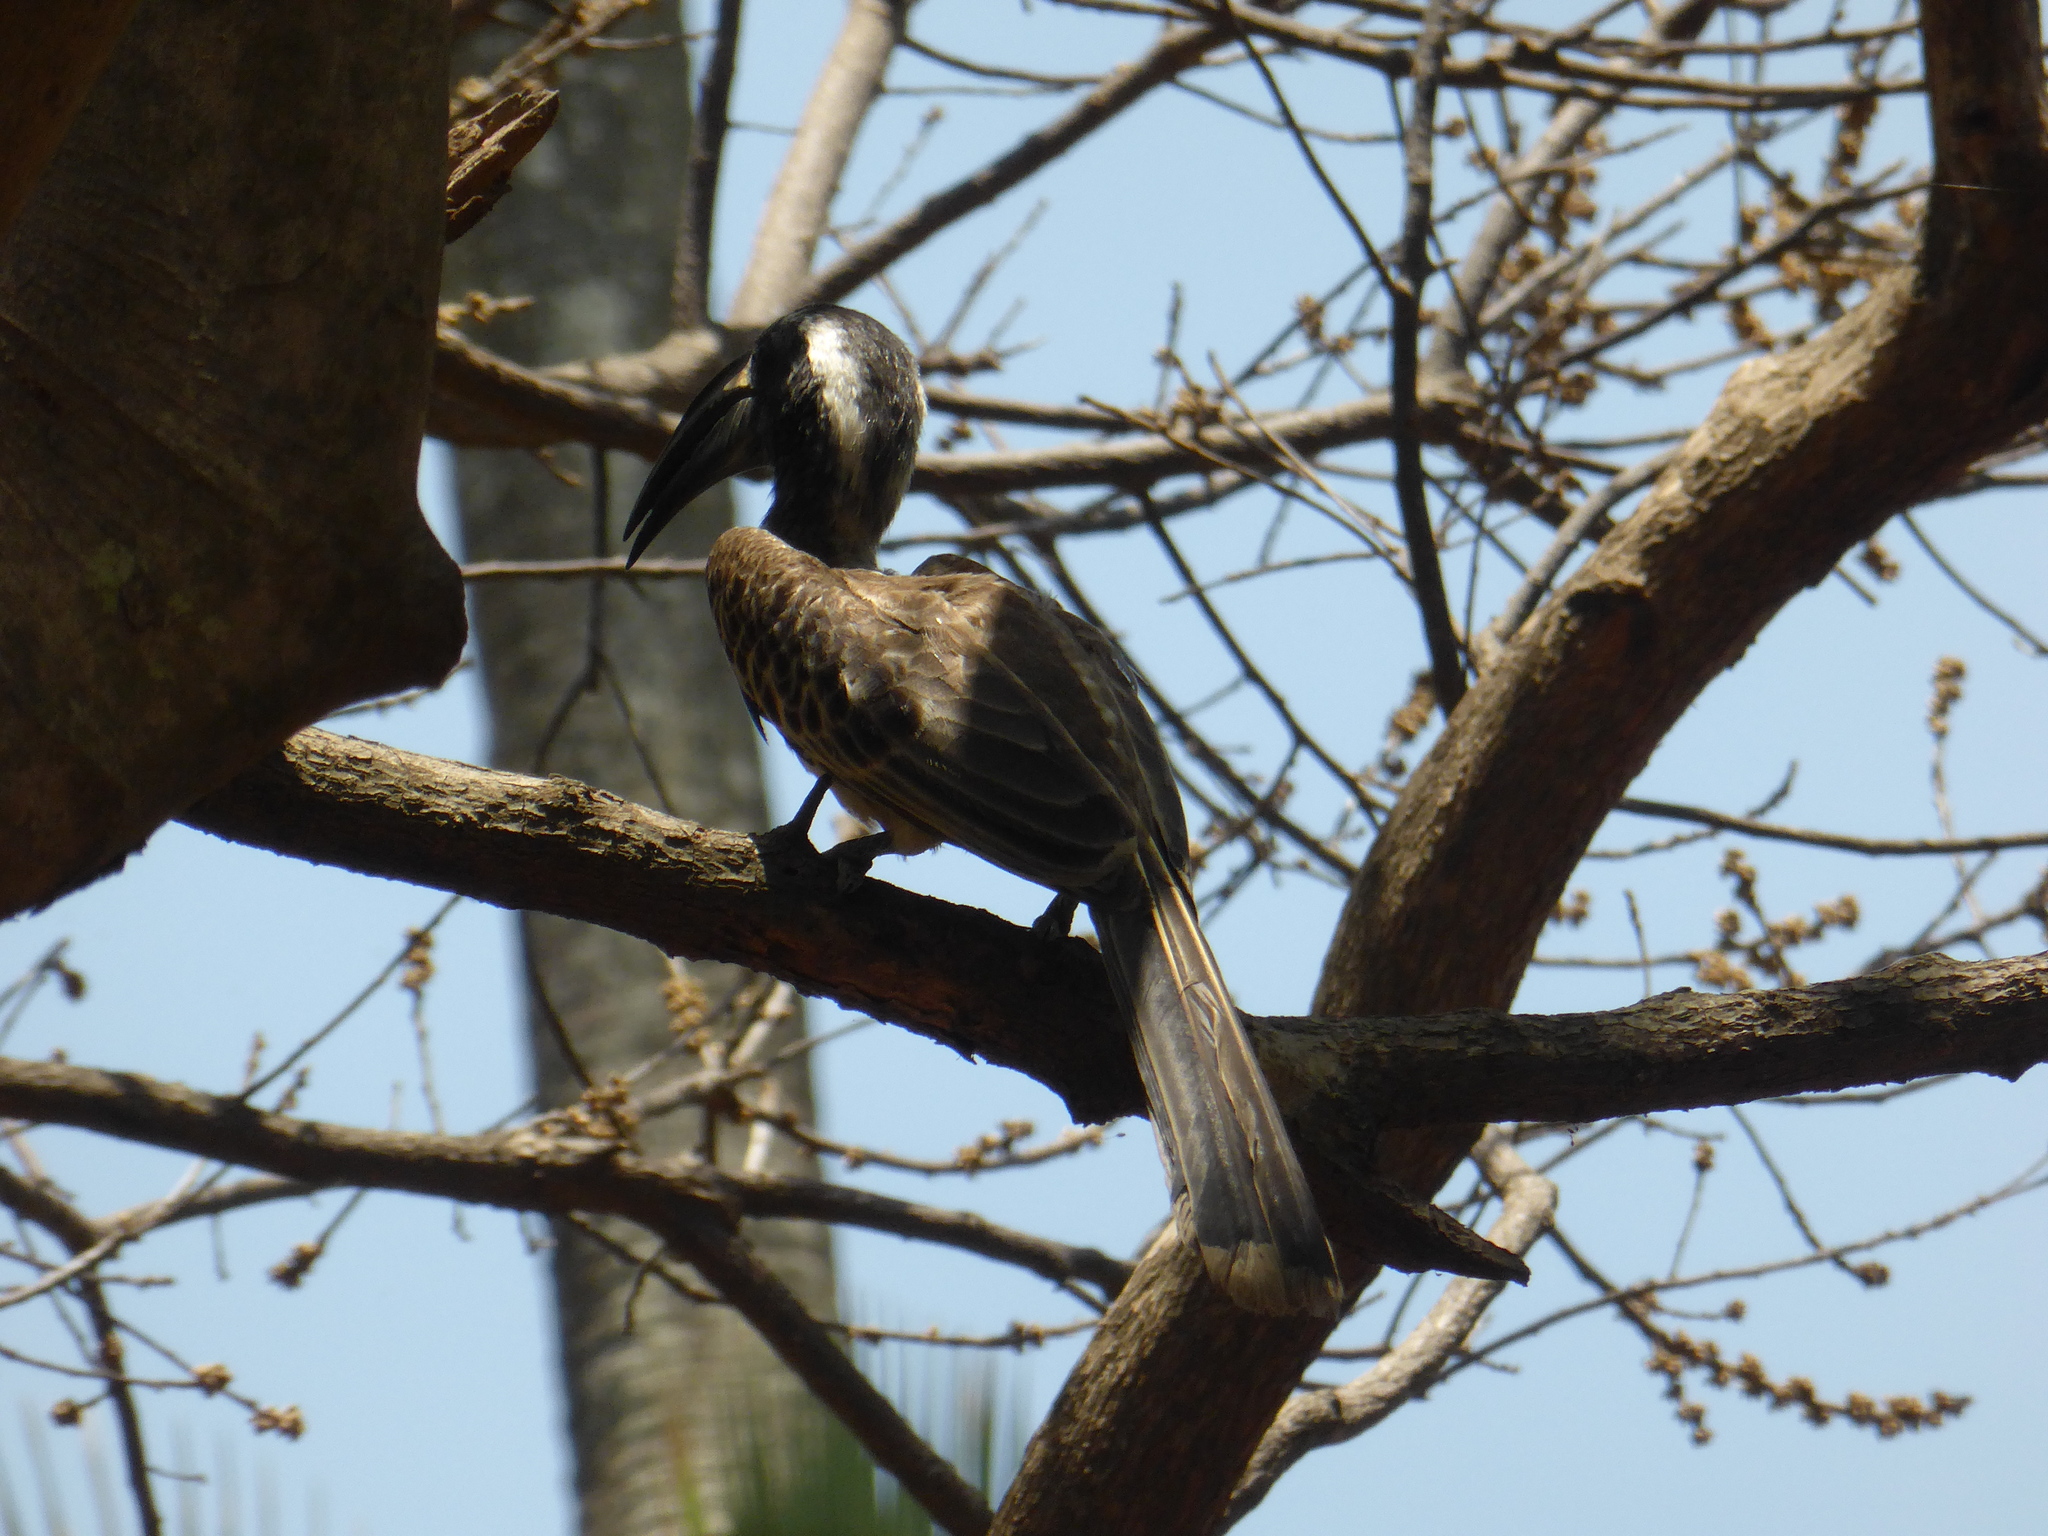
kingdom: Animalia
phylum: Chordata
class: Aves
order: Bucerotiformes
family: Bucerotidae
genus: Lophoceros
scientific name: Lophoceros nasutus
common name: African grey hornbill
